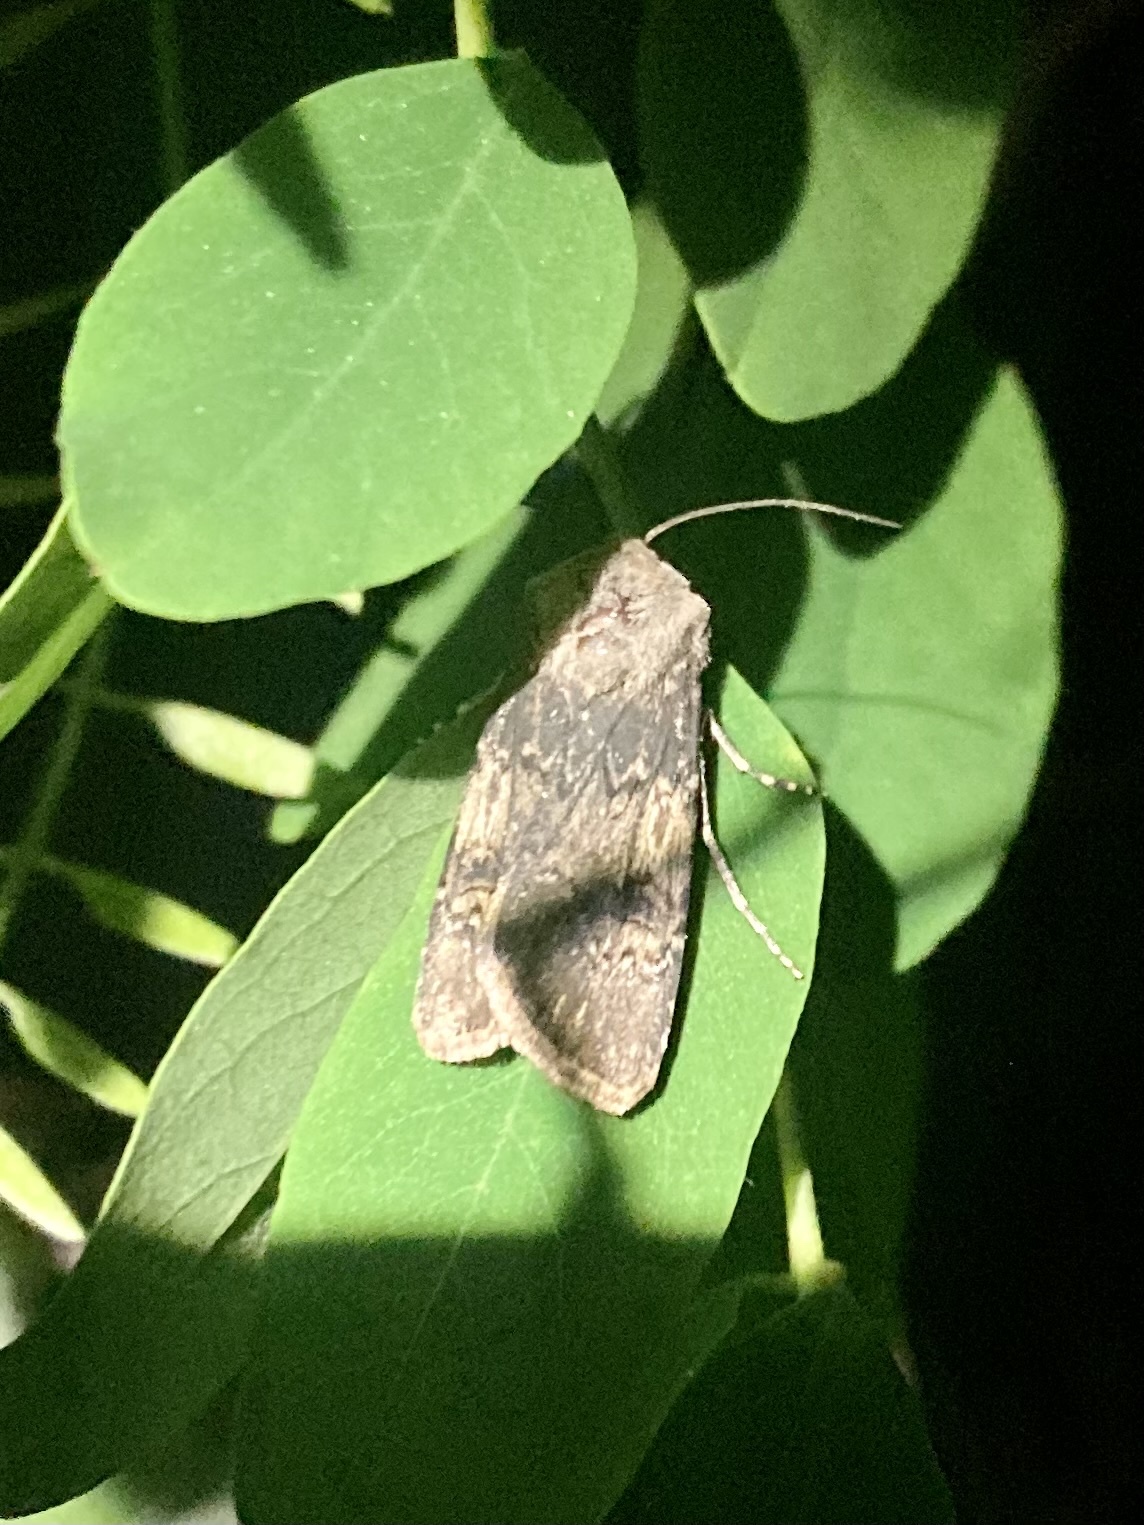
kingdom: Animalia
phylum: Arthropoda
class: Insecta
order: Lepidoptera
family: Noctuidae
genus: Agrotis
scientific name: Agrotis puta
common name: Shuttle-shaped dart
